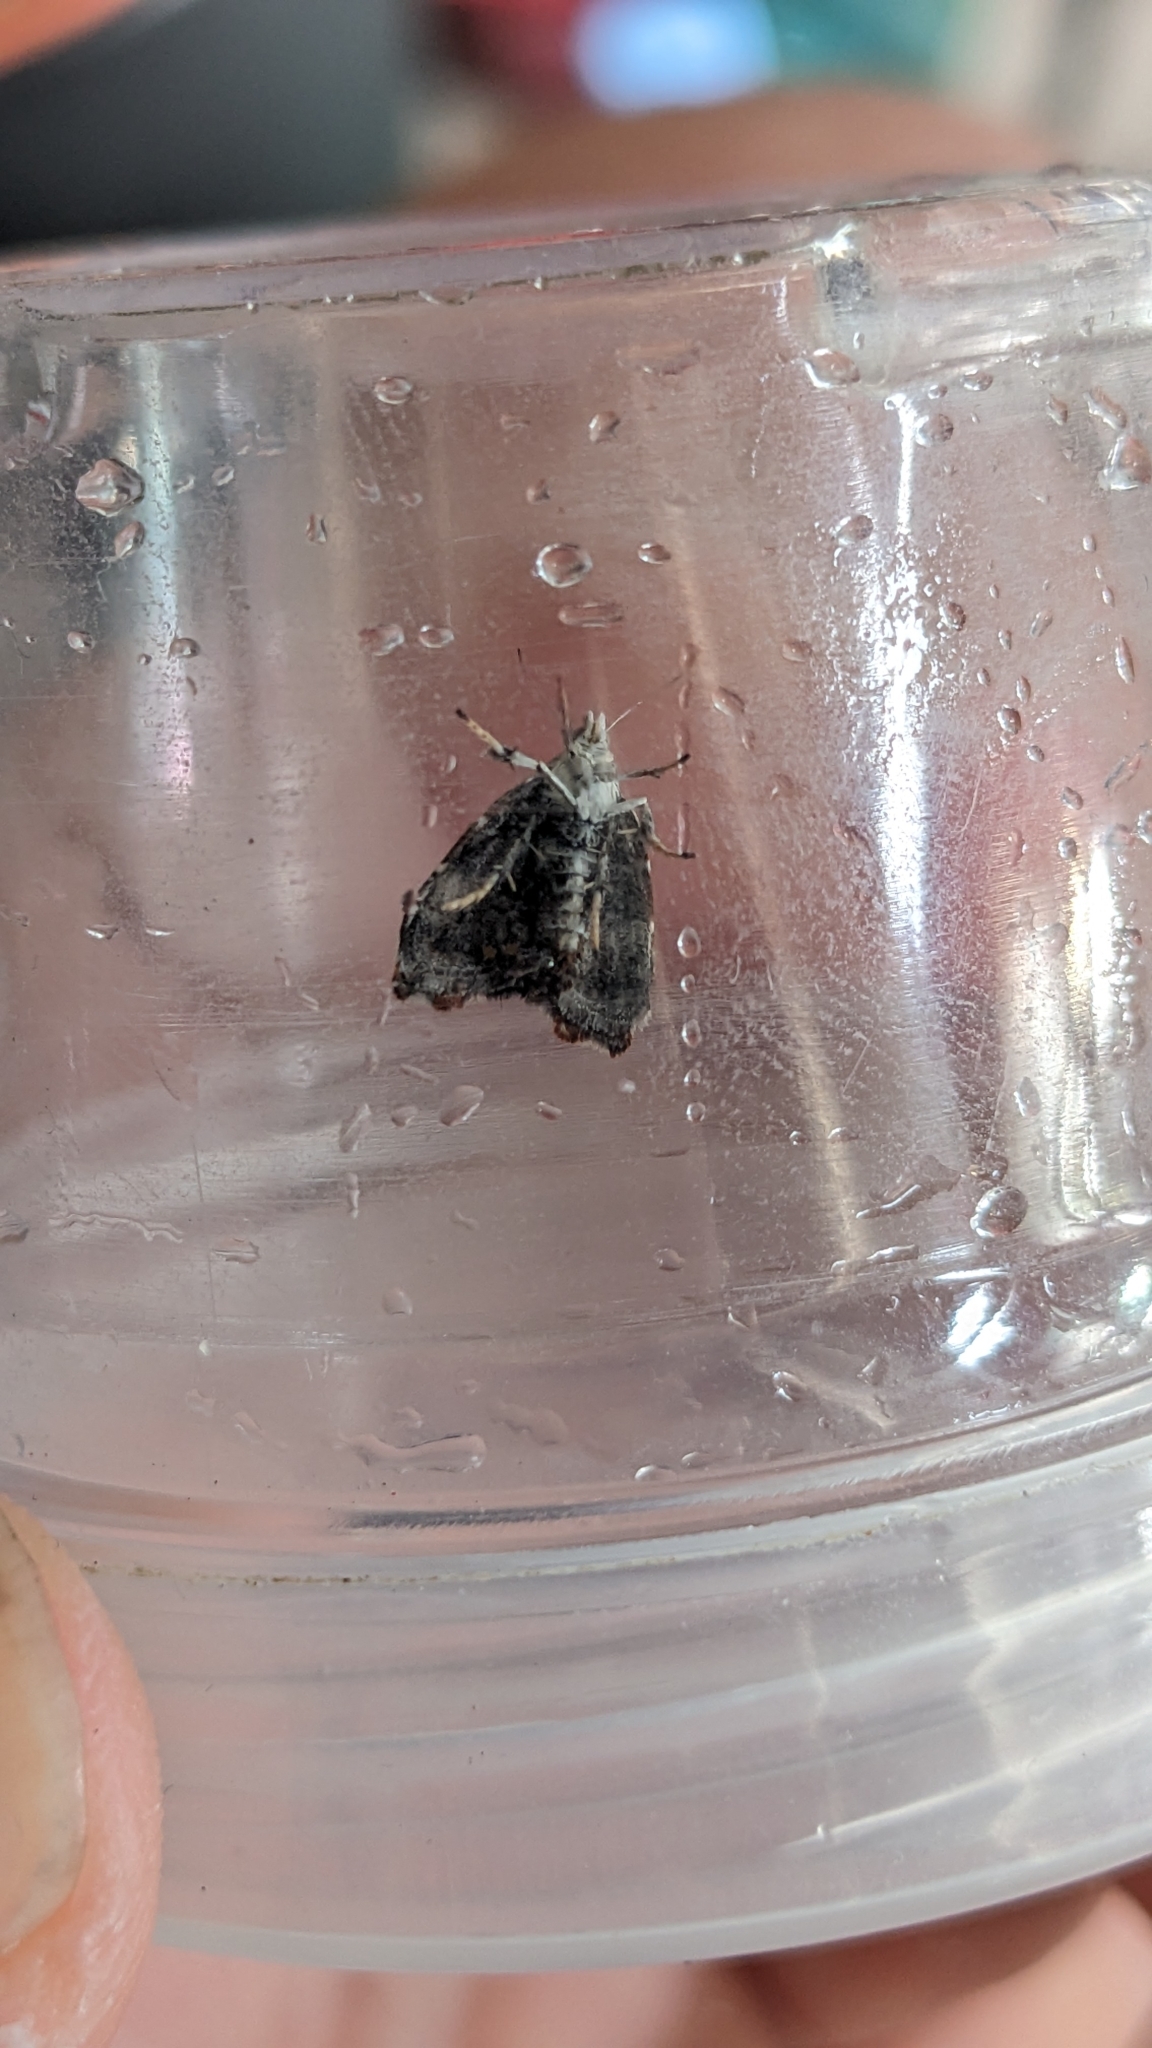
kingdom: Animalia
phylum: Arthropoda
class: Insecta
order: Lepidoptera
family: Choreutidae
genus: Anthophila
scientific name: Anthophila nemorana
